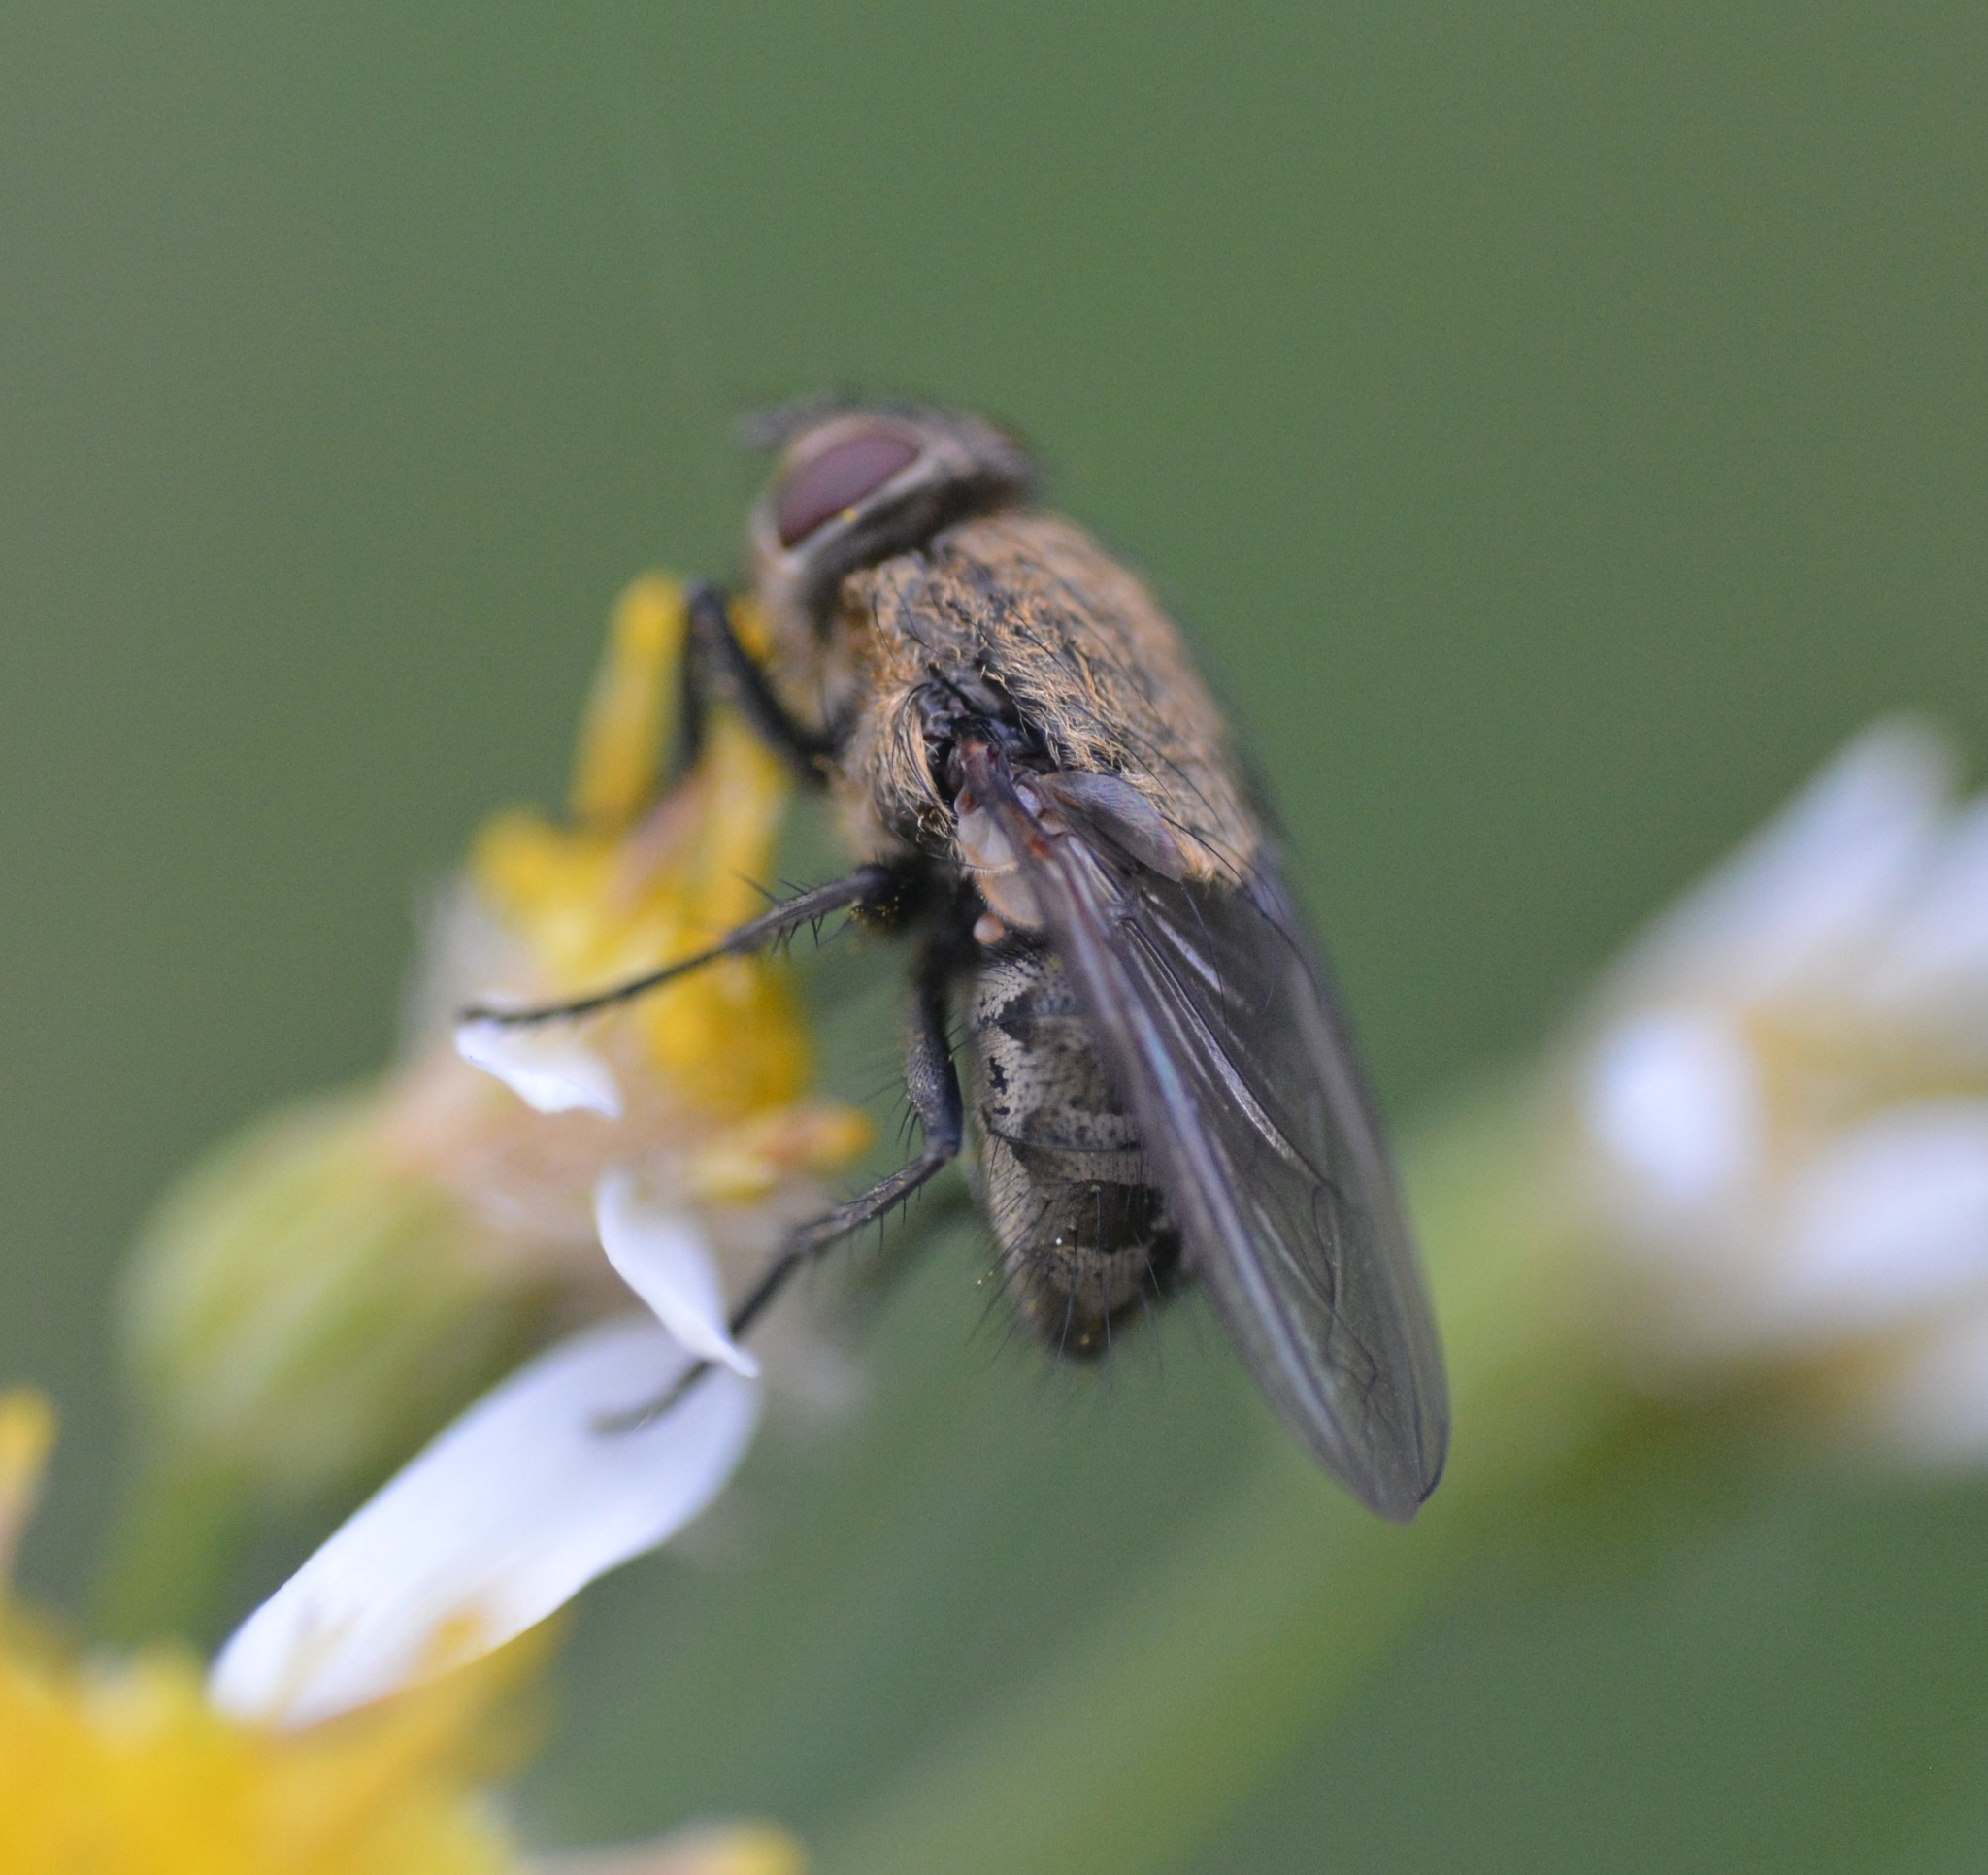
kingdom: Animalia
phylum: Arthropoda
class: Insecta
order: Diptera
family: Polleniidae
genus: Pollenia
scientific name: Pollenia
